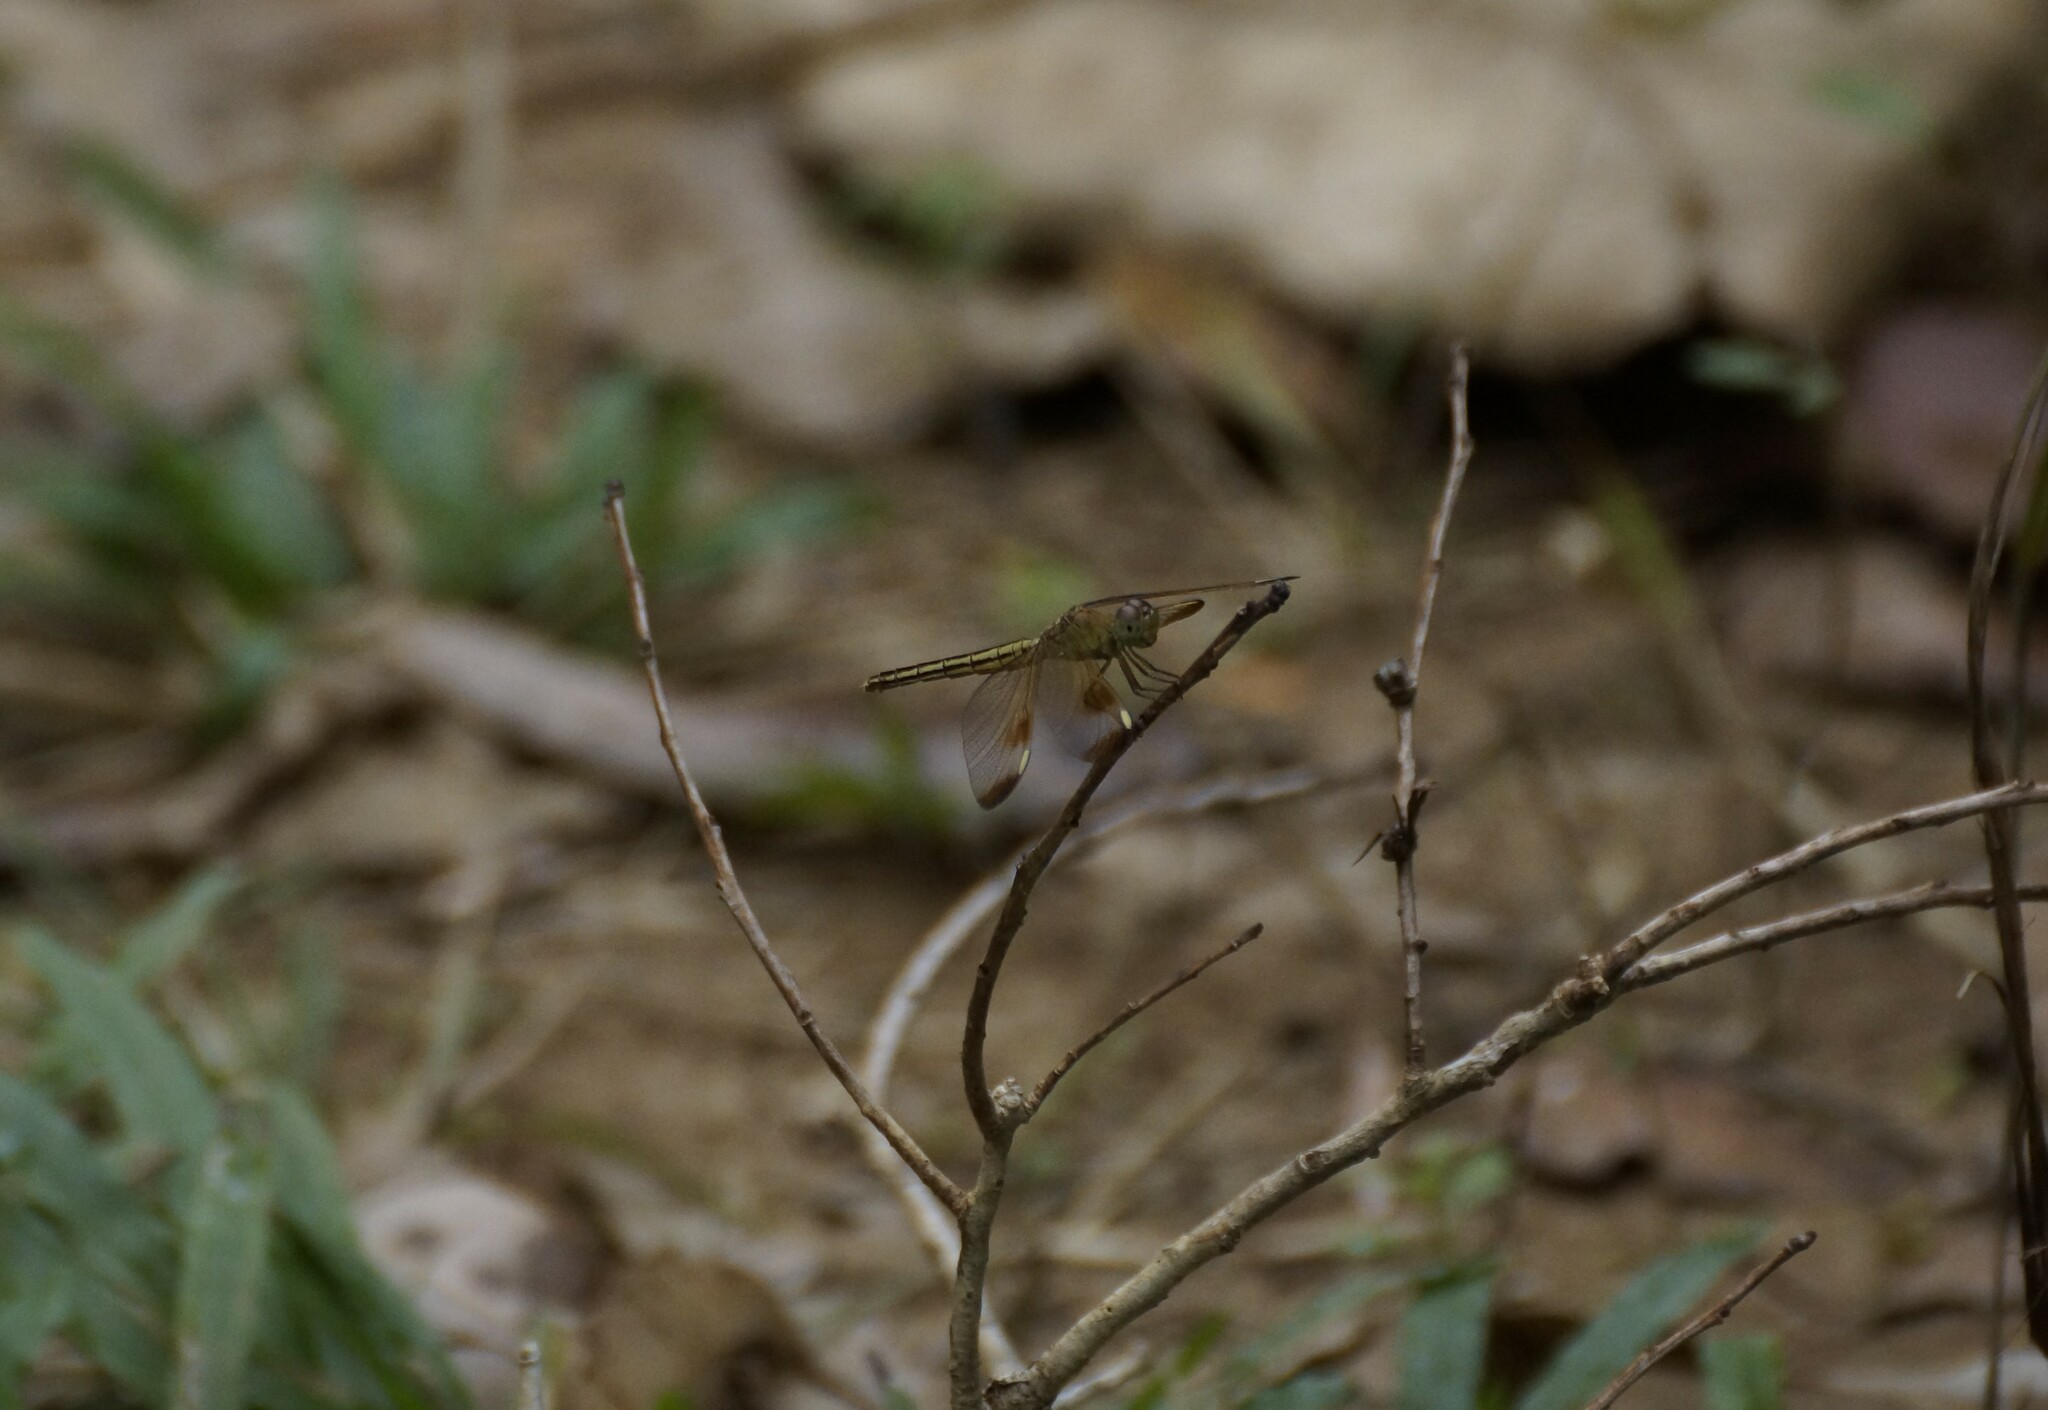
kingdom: Animalia
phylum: Arthropoda
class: Insecta
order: Odonata
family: Libellulidae
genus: Neurothemis
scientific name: Neurothemis stigmatizans
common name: Painted grasshawk
